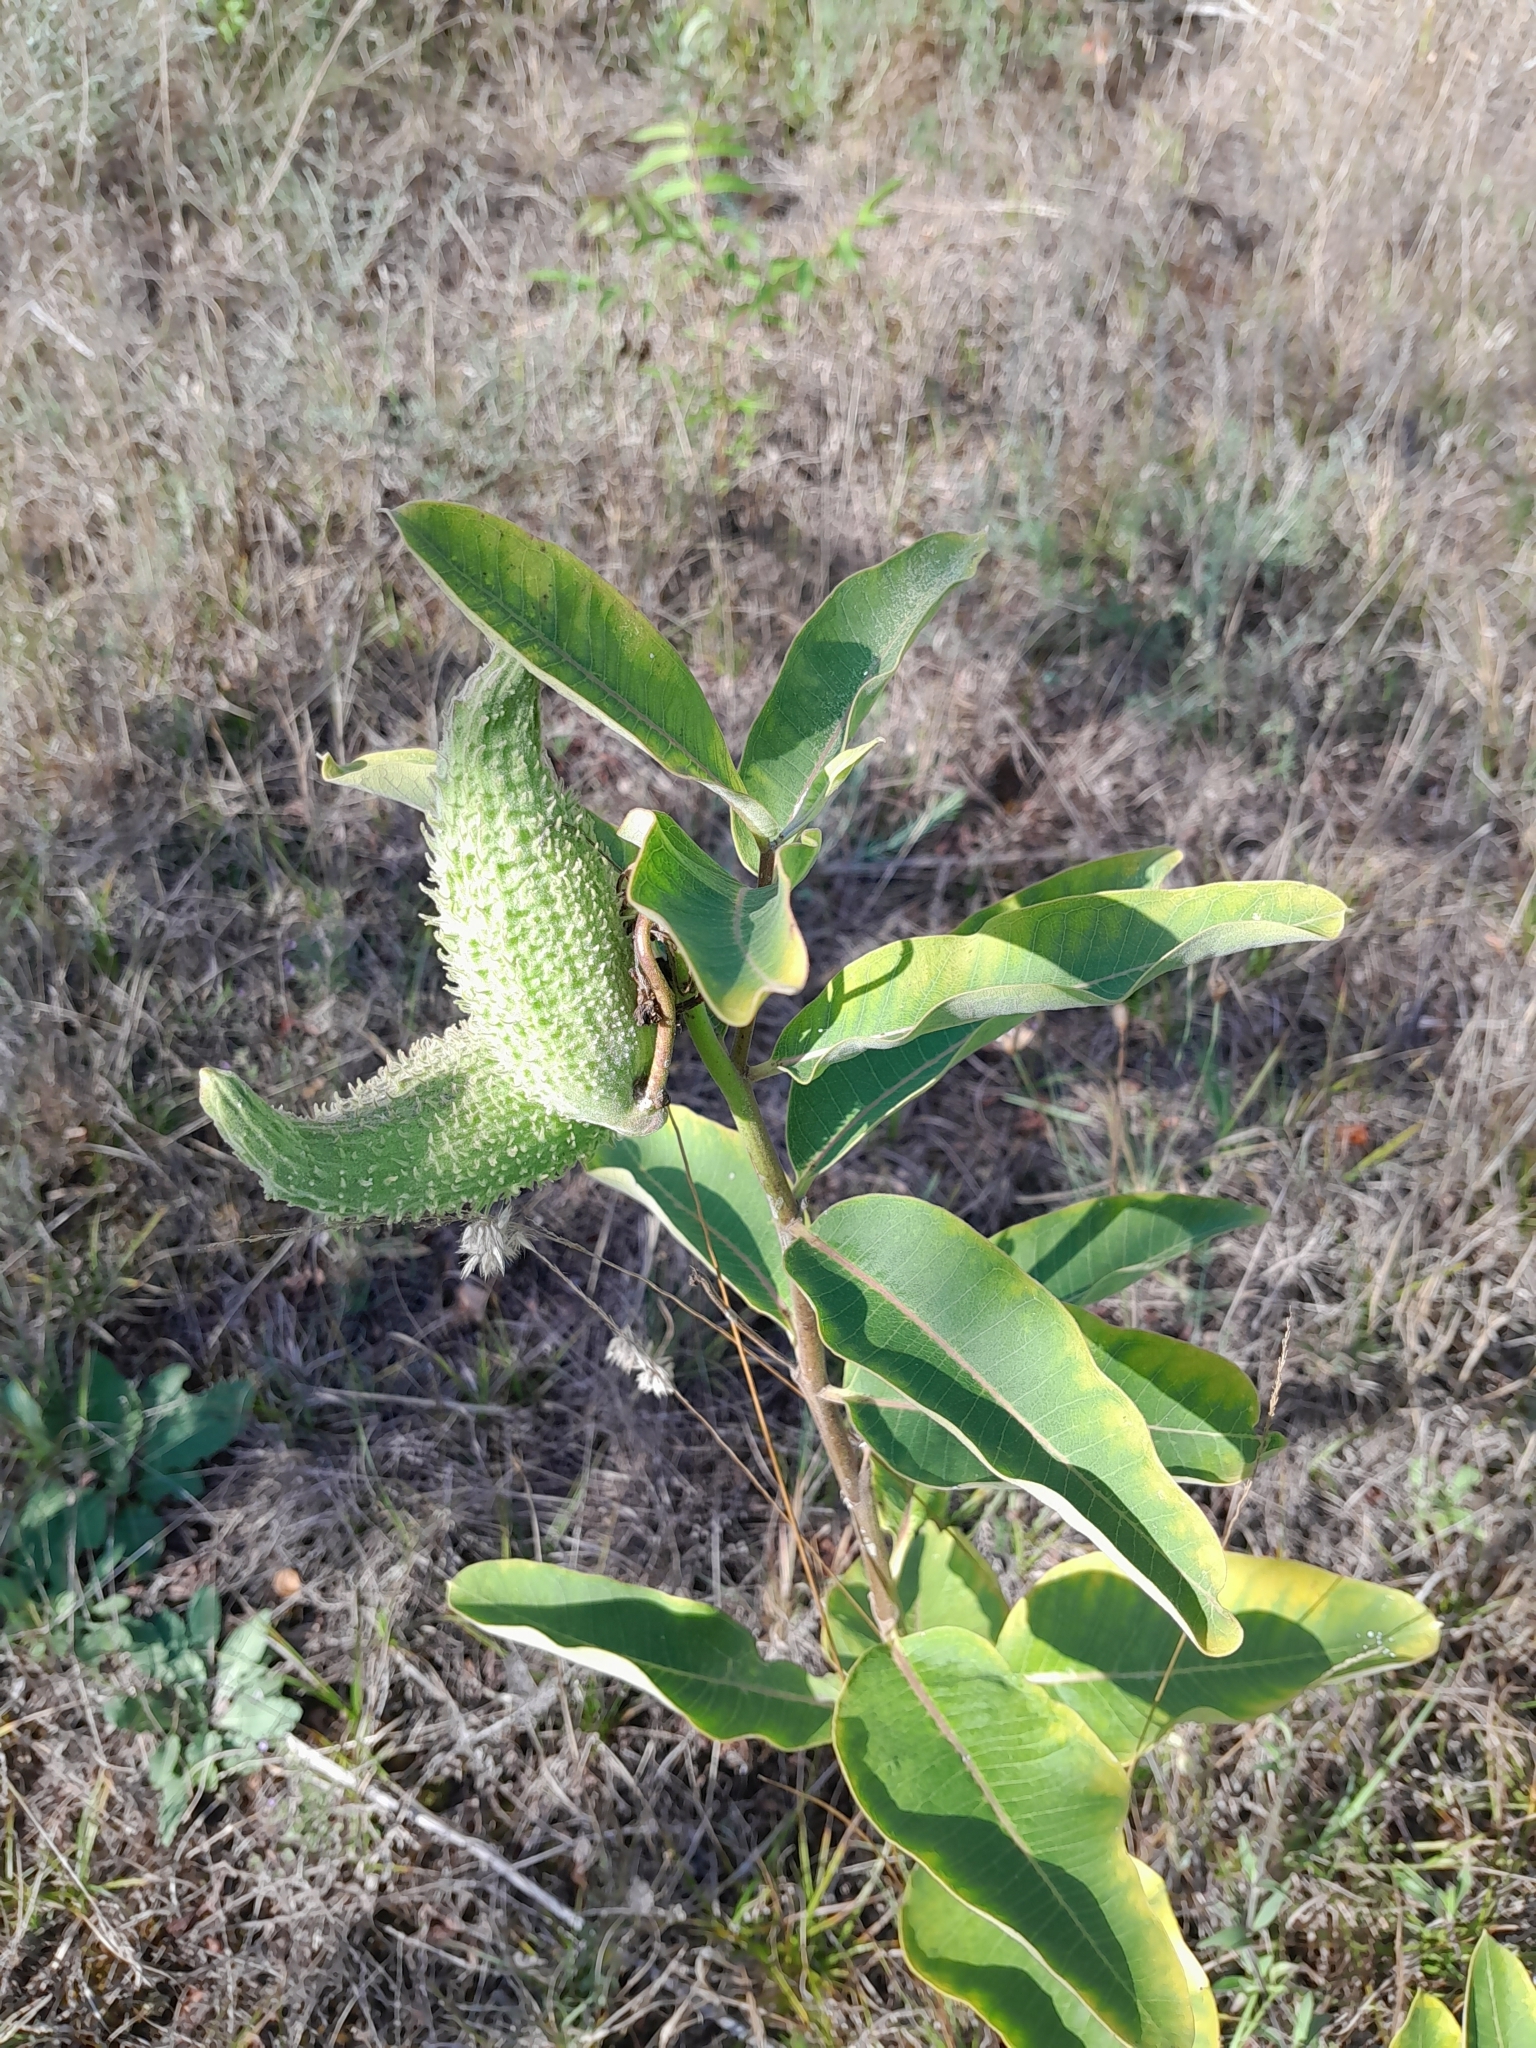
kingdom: Plantae
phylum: Tracheophyta
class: Magnoliopsida
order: Gentianales
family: Apocynaceae
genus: Asclepias
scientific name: Asclepias syriaca
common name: Common milkweed
